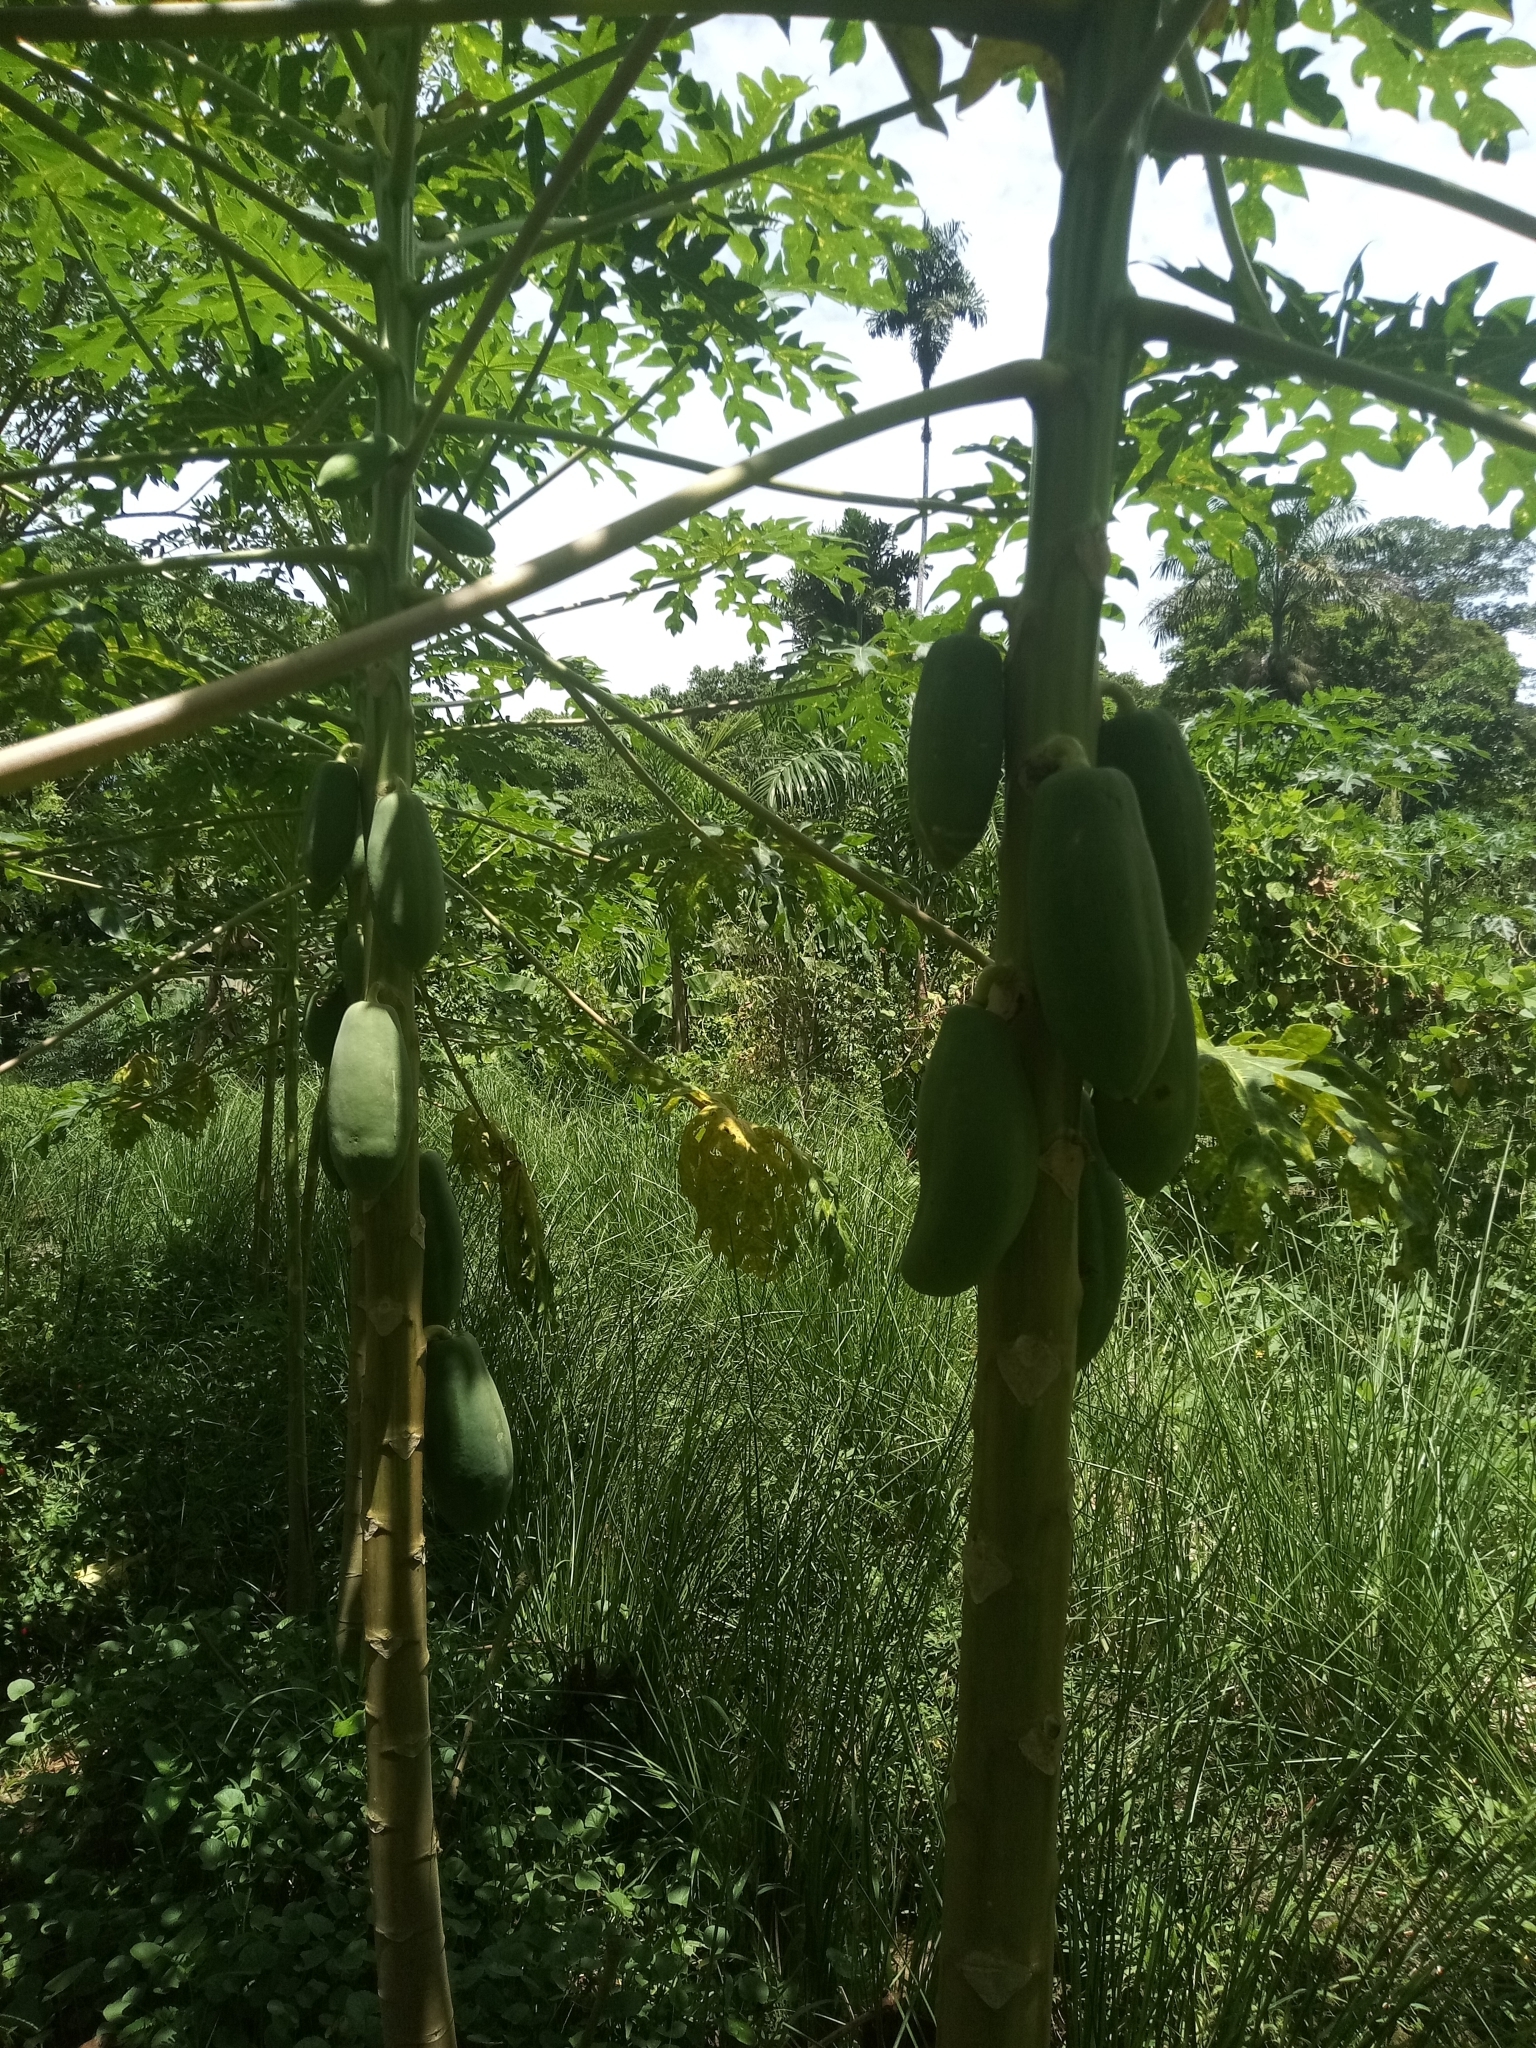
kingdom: Plantae
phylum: Tracheophyta
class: Magnoliopsida
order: Brassicales
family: Caricaceae
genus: Carica
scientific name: Carica papaya
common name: Papaya
